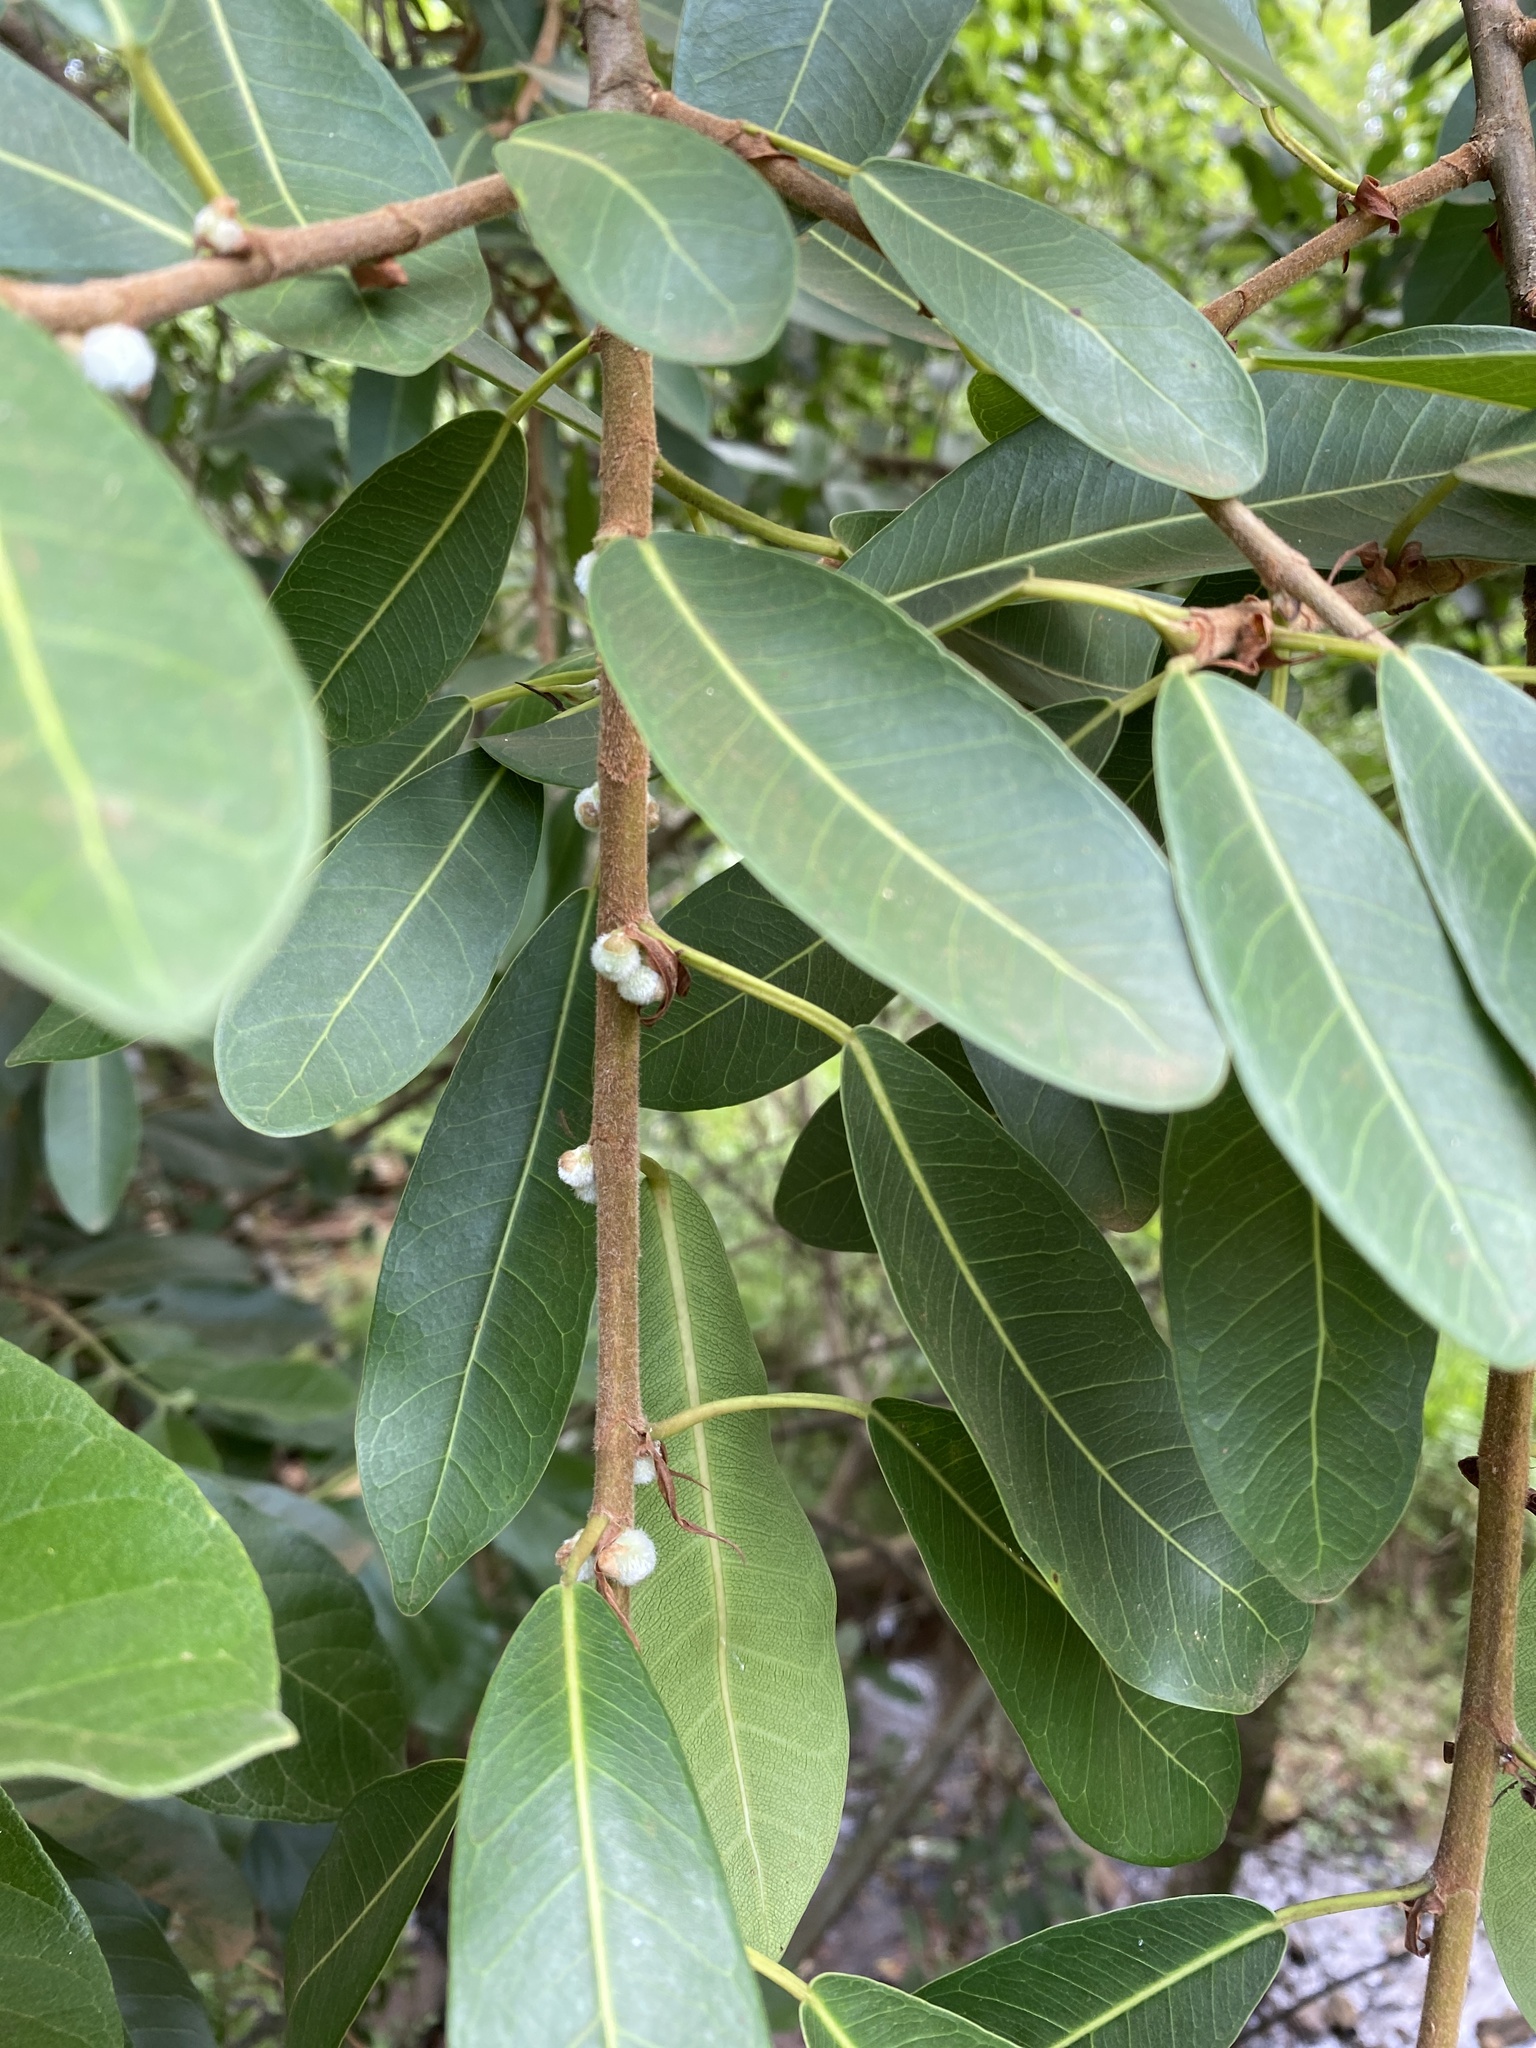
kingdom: Plantae
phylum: Tracheophyta
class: Magnoliopsida
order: Rosales
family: Moraceae
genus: Ficus
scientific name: Ficus thonningii
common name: Fig
